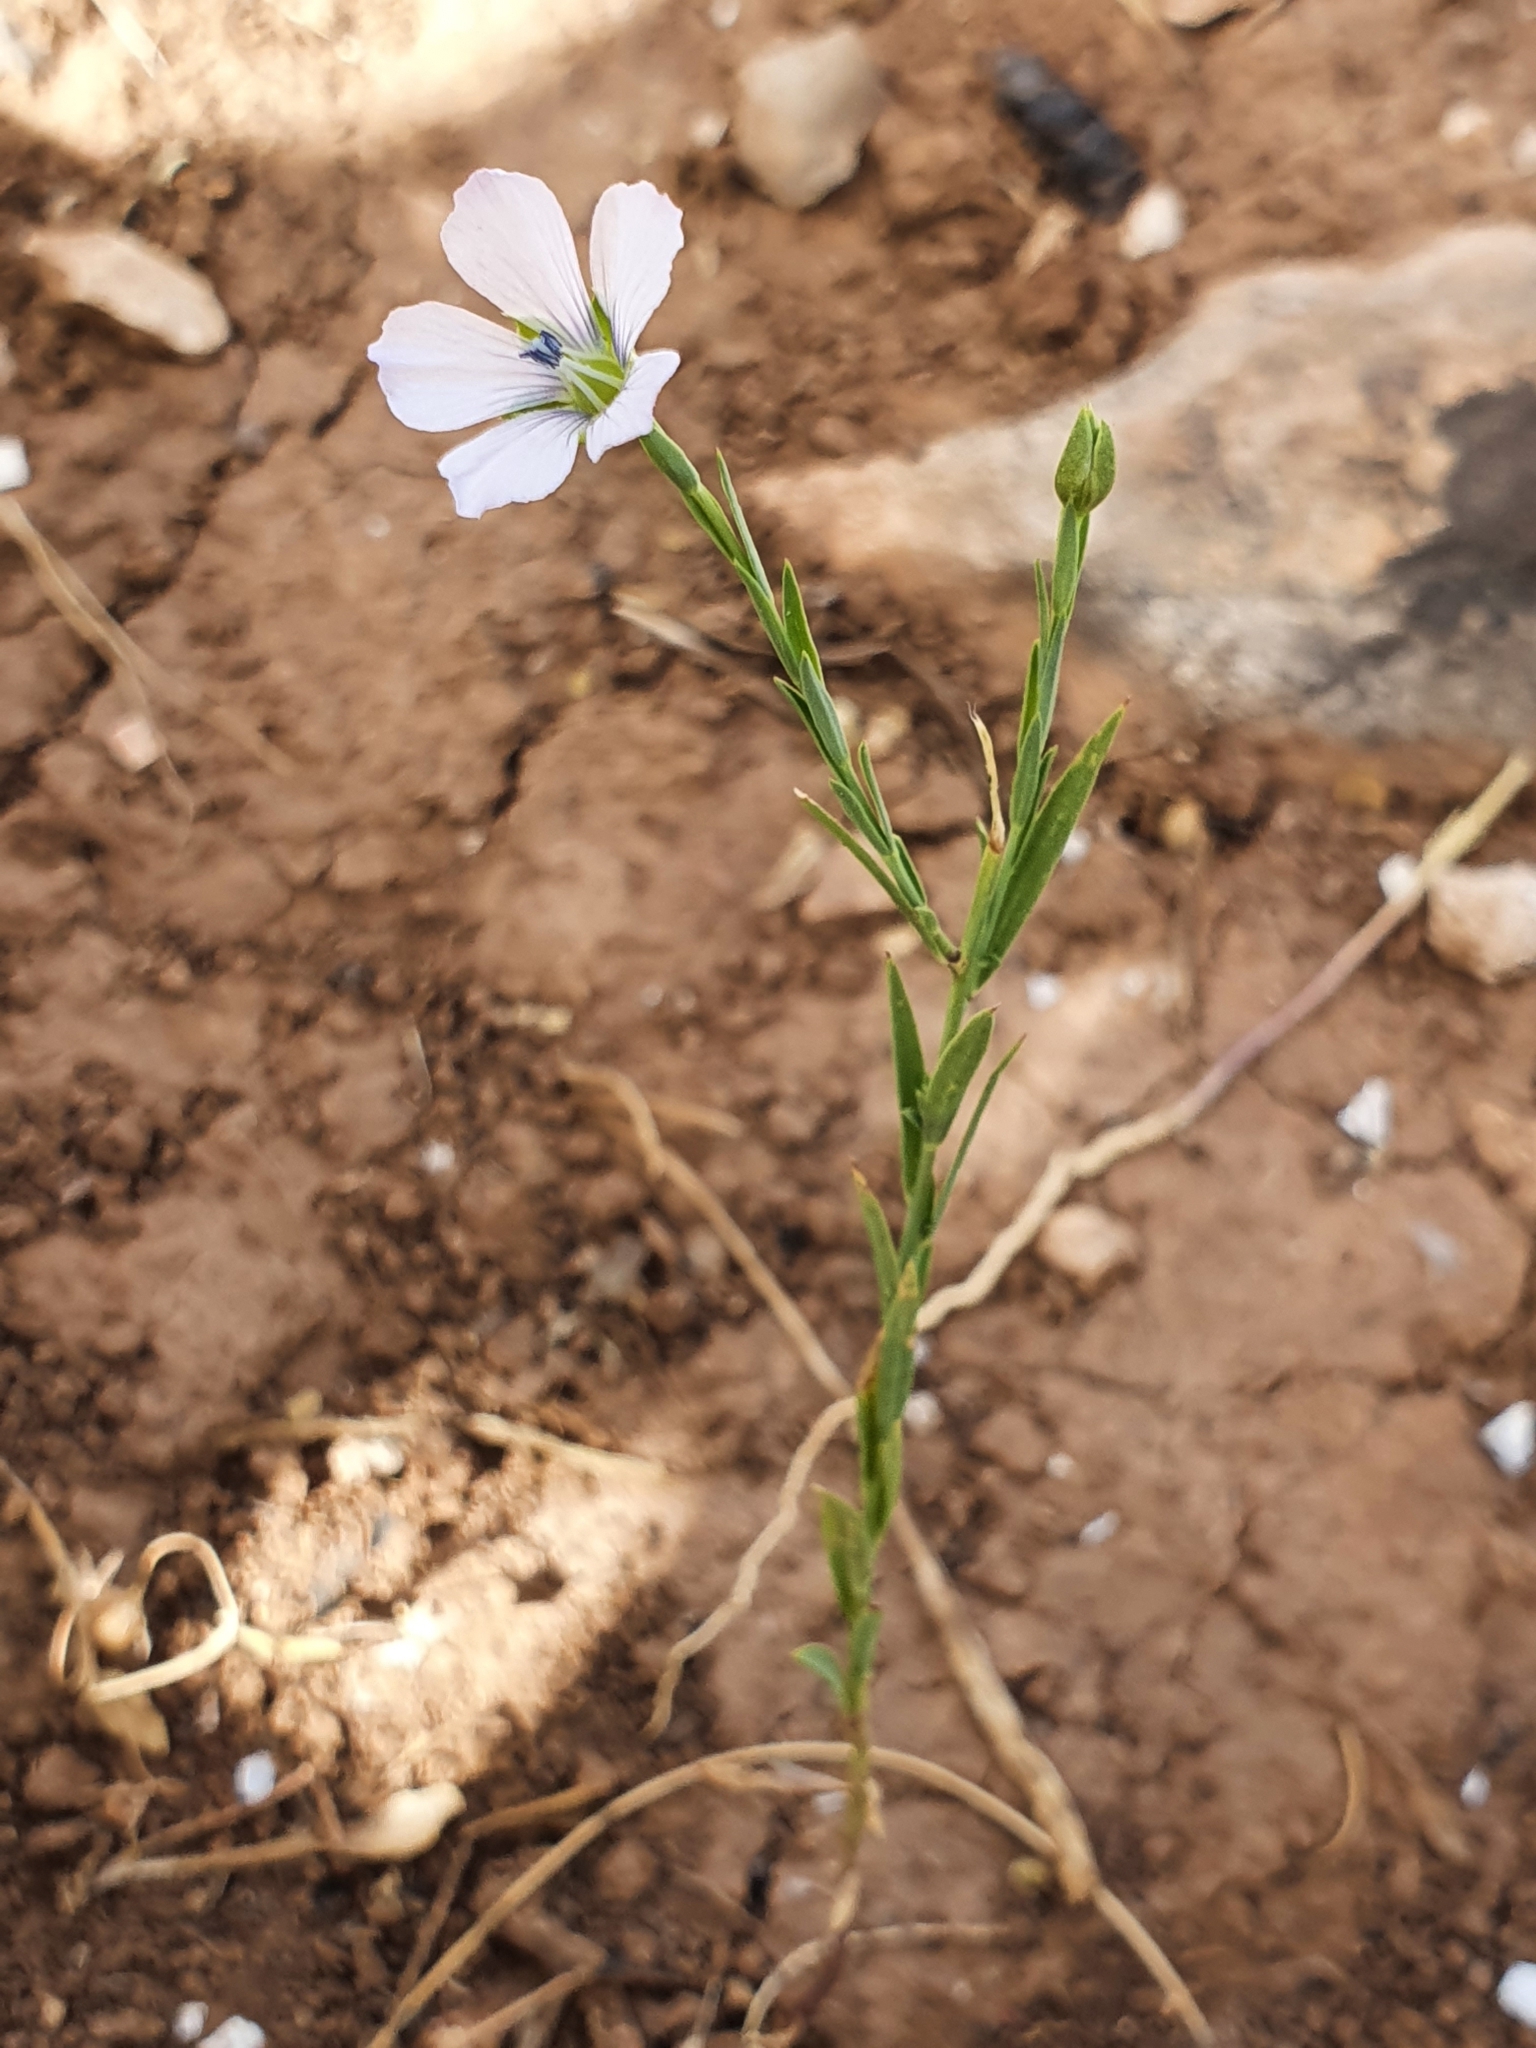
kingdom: Plantae
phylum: Tracheophyta
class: Magnoliopsida
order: Malpighiales
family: Linaceae
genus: Linum
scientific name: Linum bienne
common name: Pale flax
